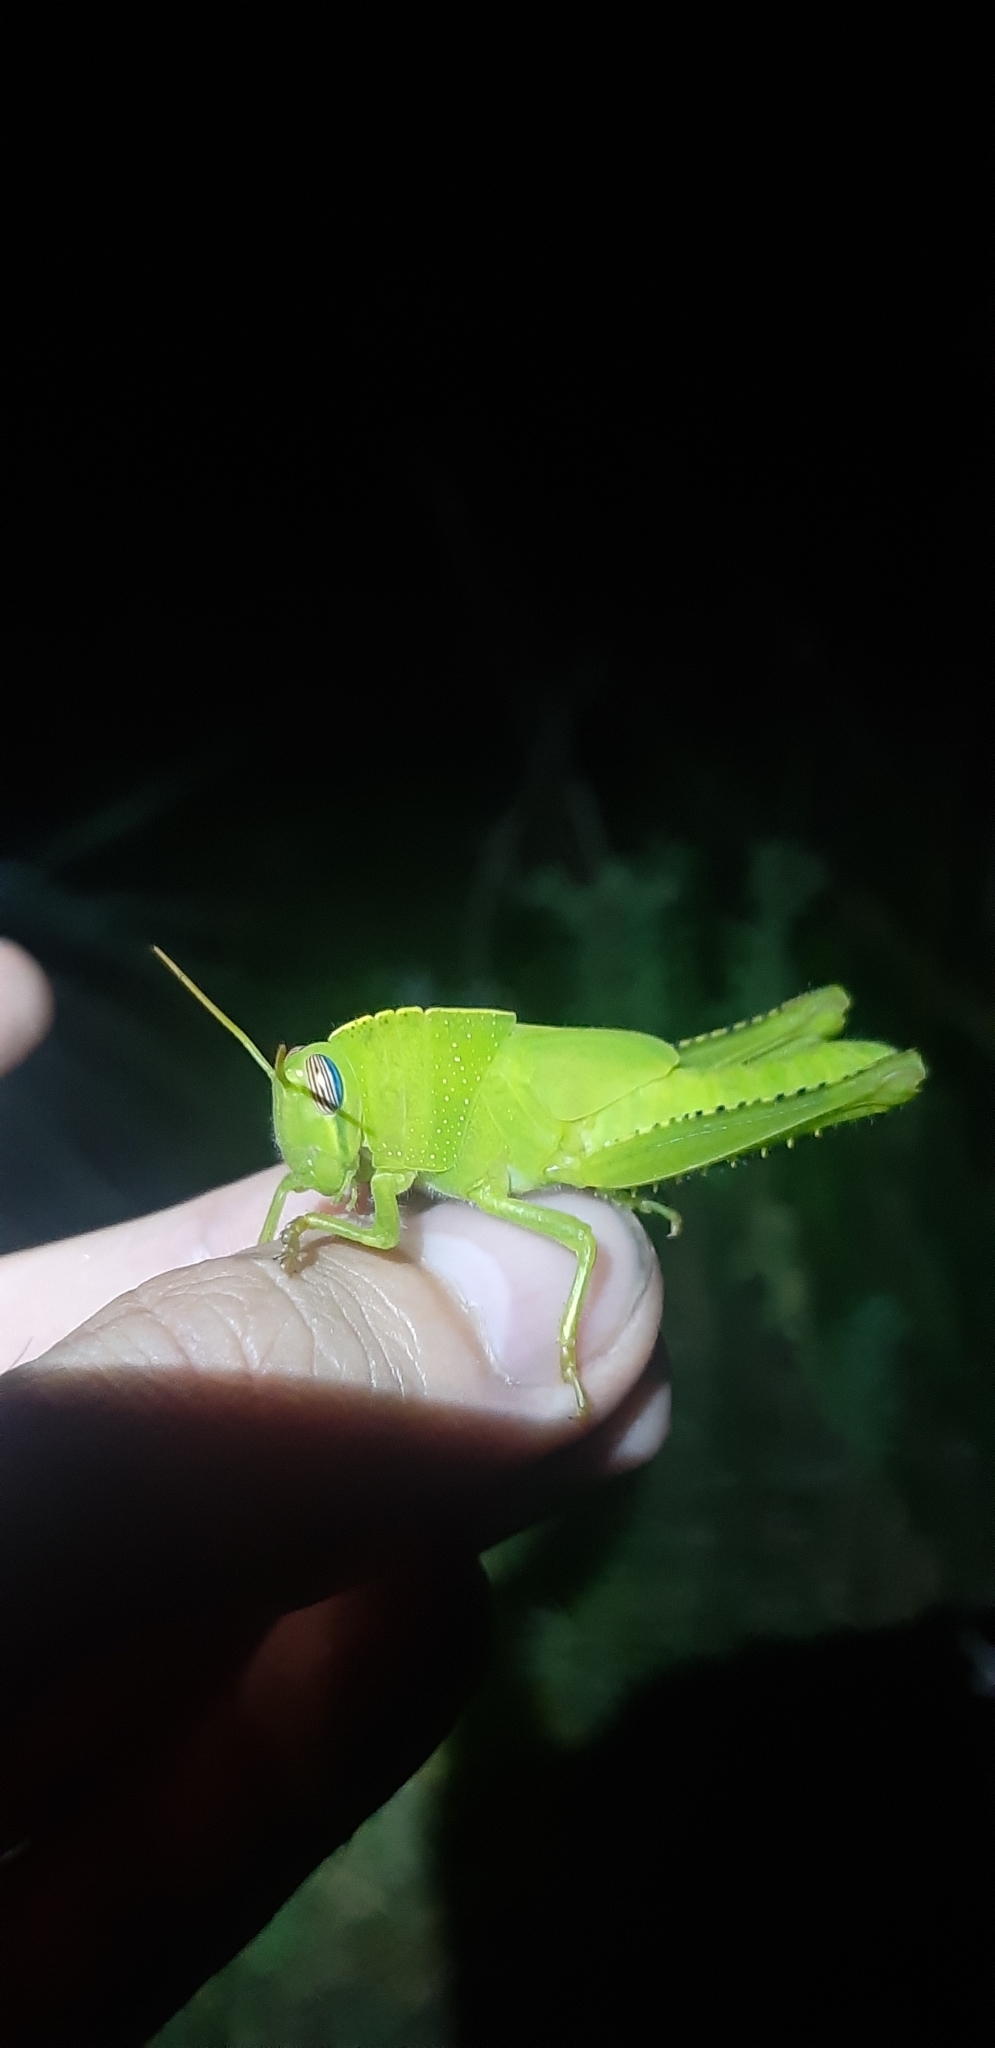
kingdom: Animalia
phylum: Arthropoda
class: Insecta
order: Orthoptera
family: Acrididae
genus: Anacridium
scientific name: Anacridium aegyptium
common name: Egyptian grasshopper
